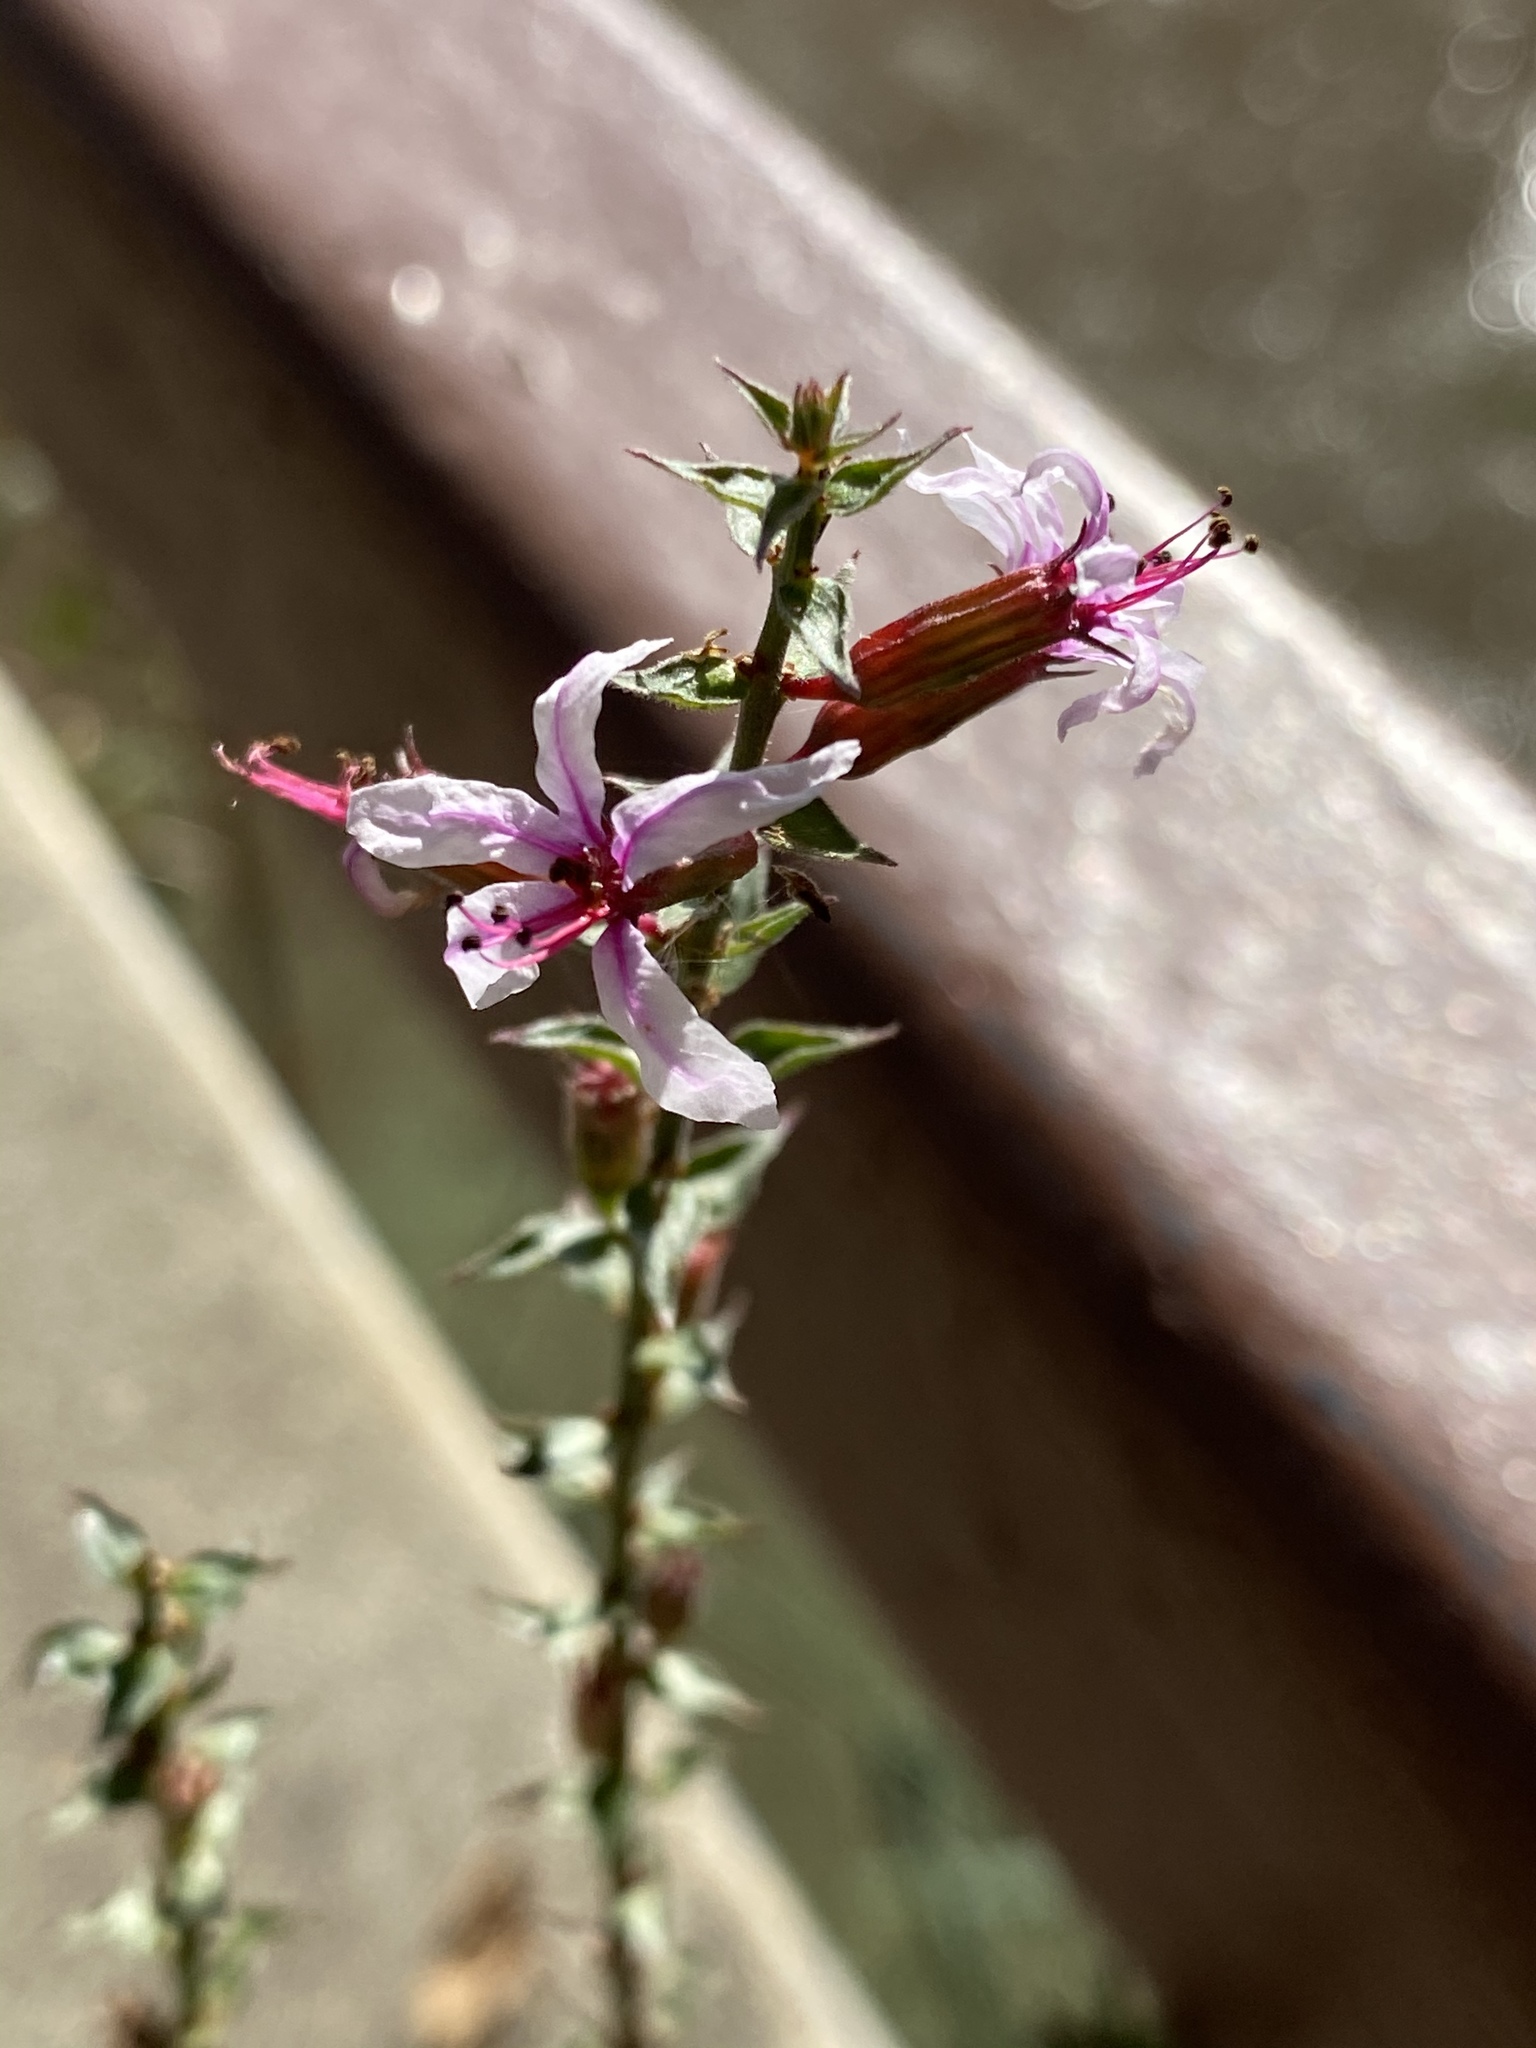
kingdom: Plantae
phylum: Tracheophyta
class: Magnoliopsida
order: Myrtales
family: Lythraceae
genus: Lythrum
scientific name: Lythrum salicaria
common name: Purple loosestrife
